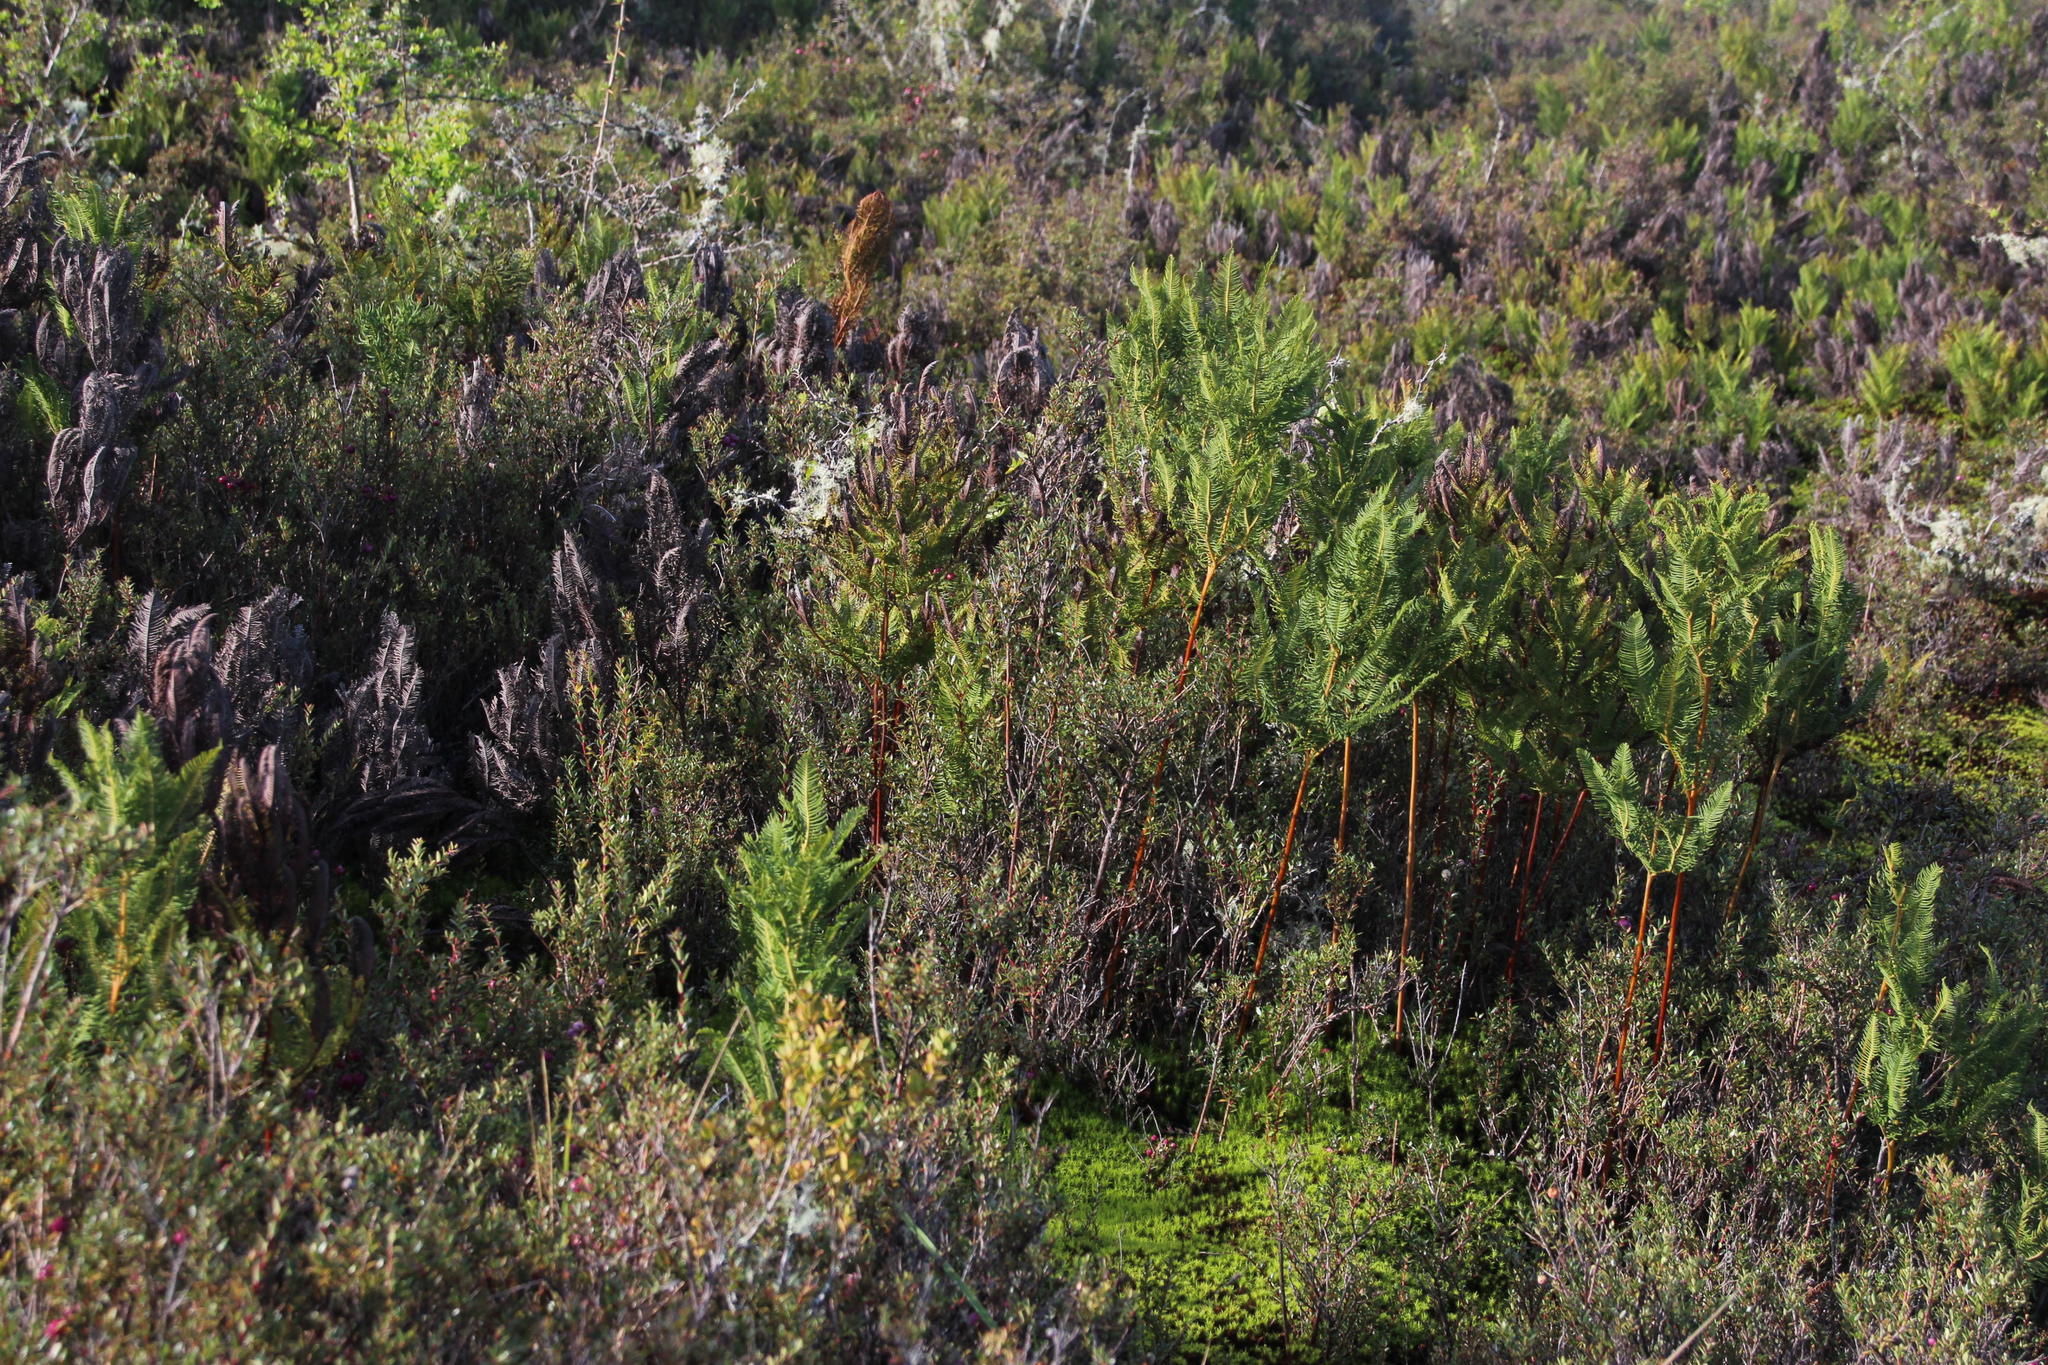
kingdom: Plantae
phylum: Tracheophyta
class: Polypodiopsida
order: Gleicheniales
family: Gleicheniaceae
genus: Sticherus
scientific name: Sticherus cryptocarpus
